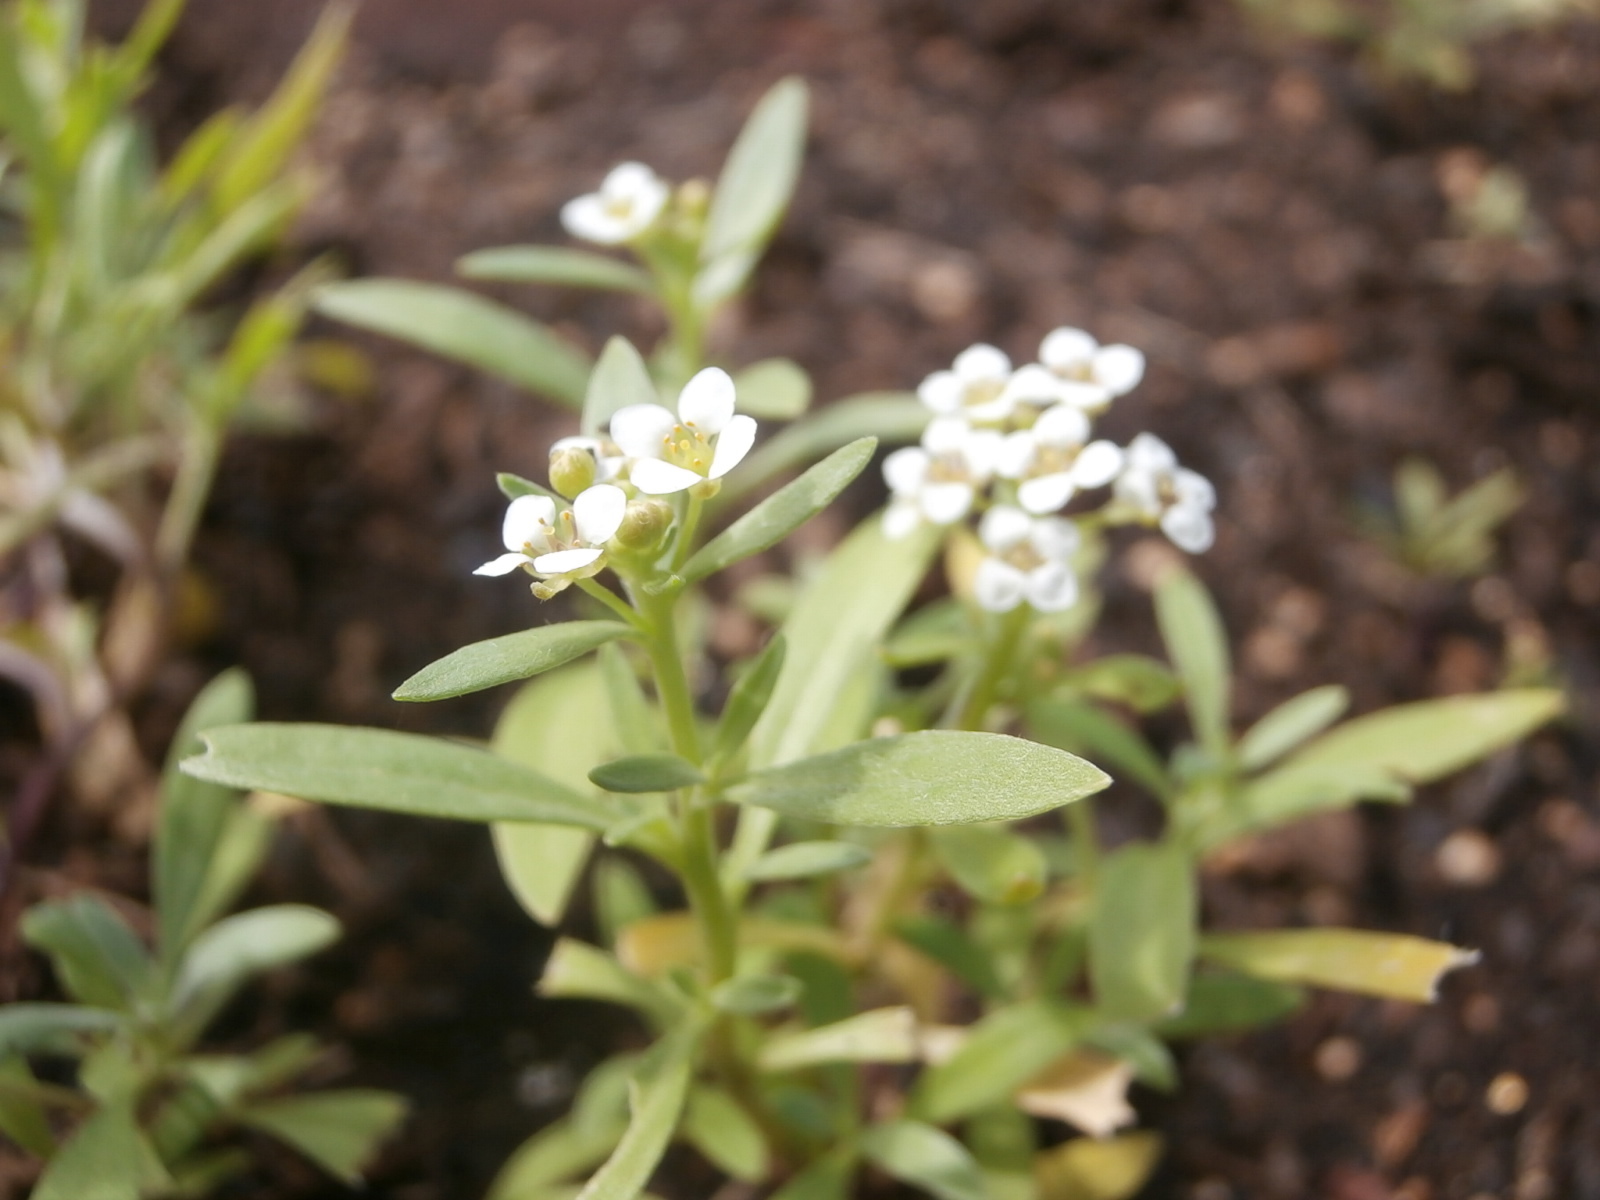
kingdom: Plantae
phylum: Tracheophyta
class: Magnoliopsida
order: Brassicales
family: Brassicaceae
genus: Lobularia
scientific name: Lobularia maritima
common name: Sweet alison
